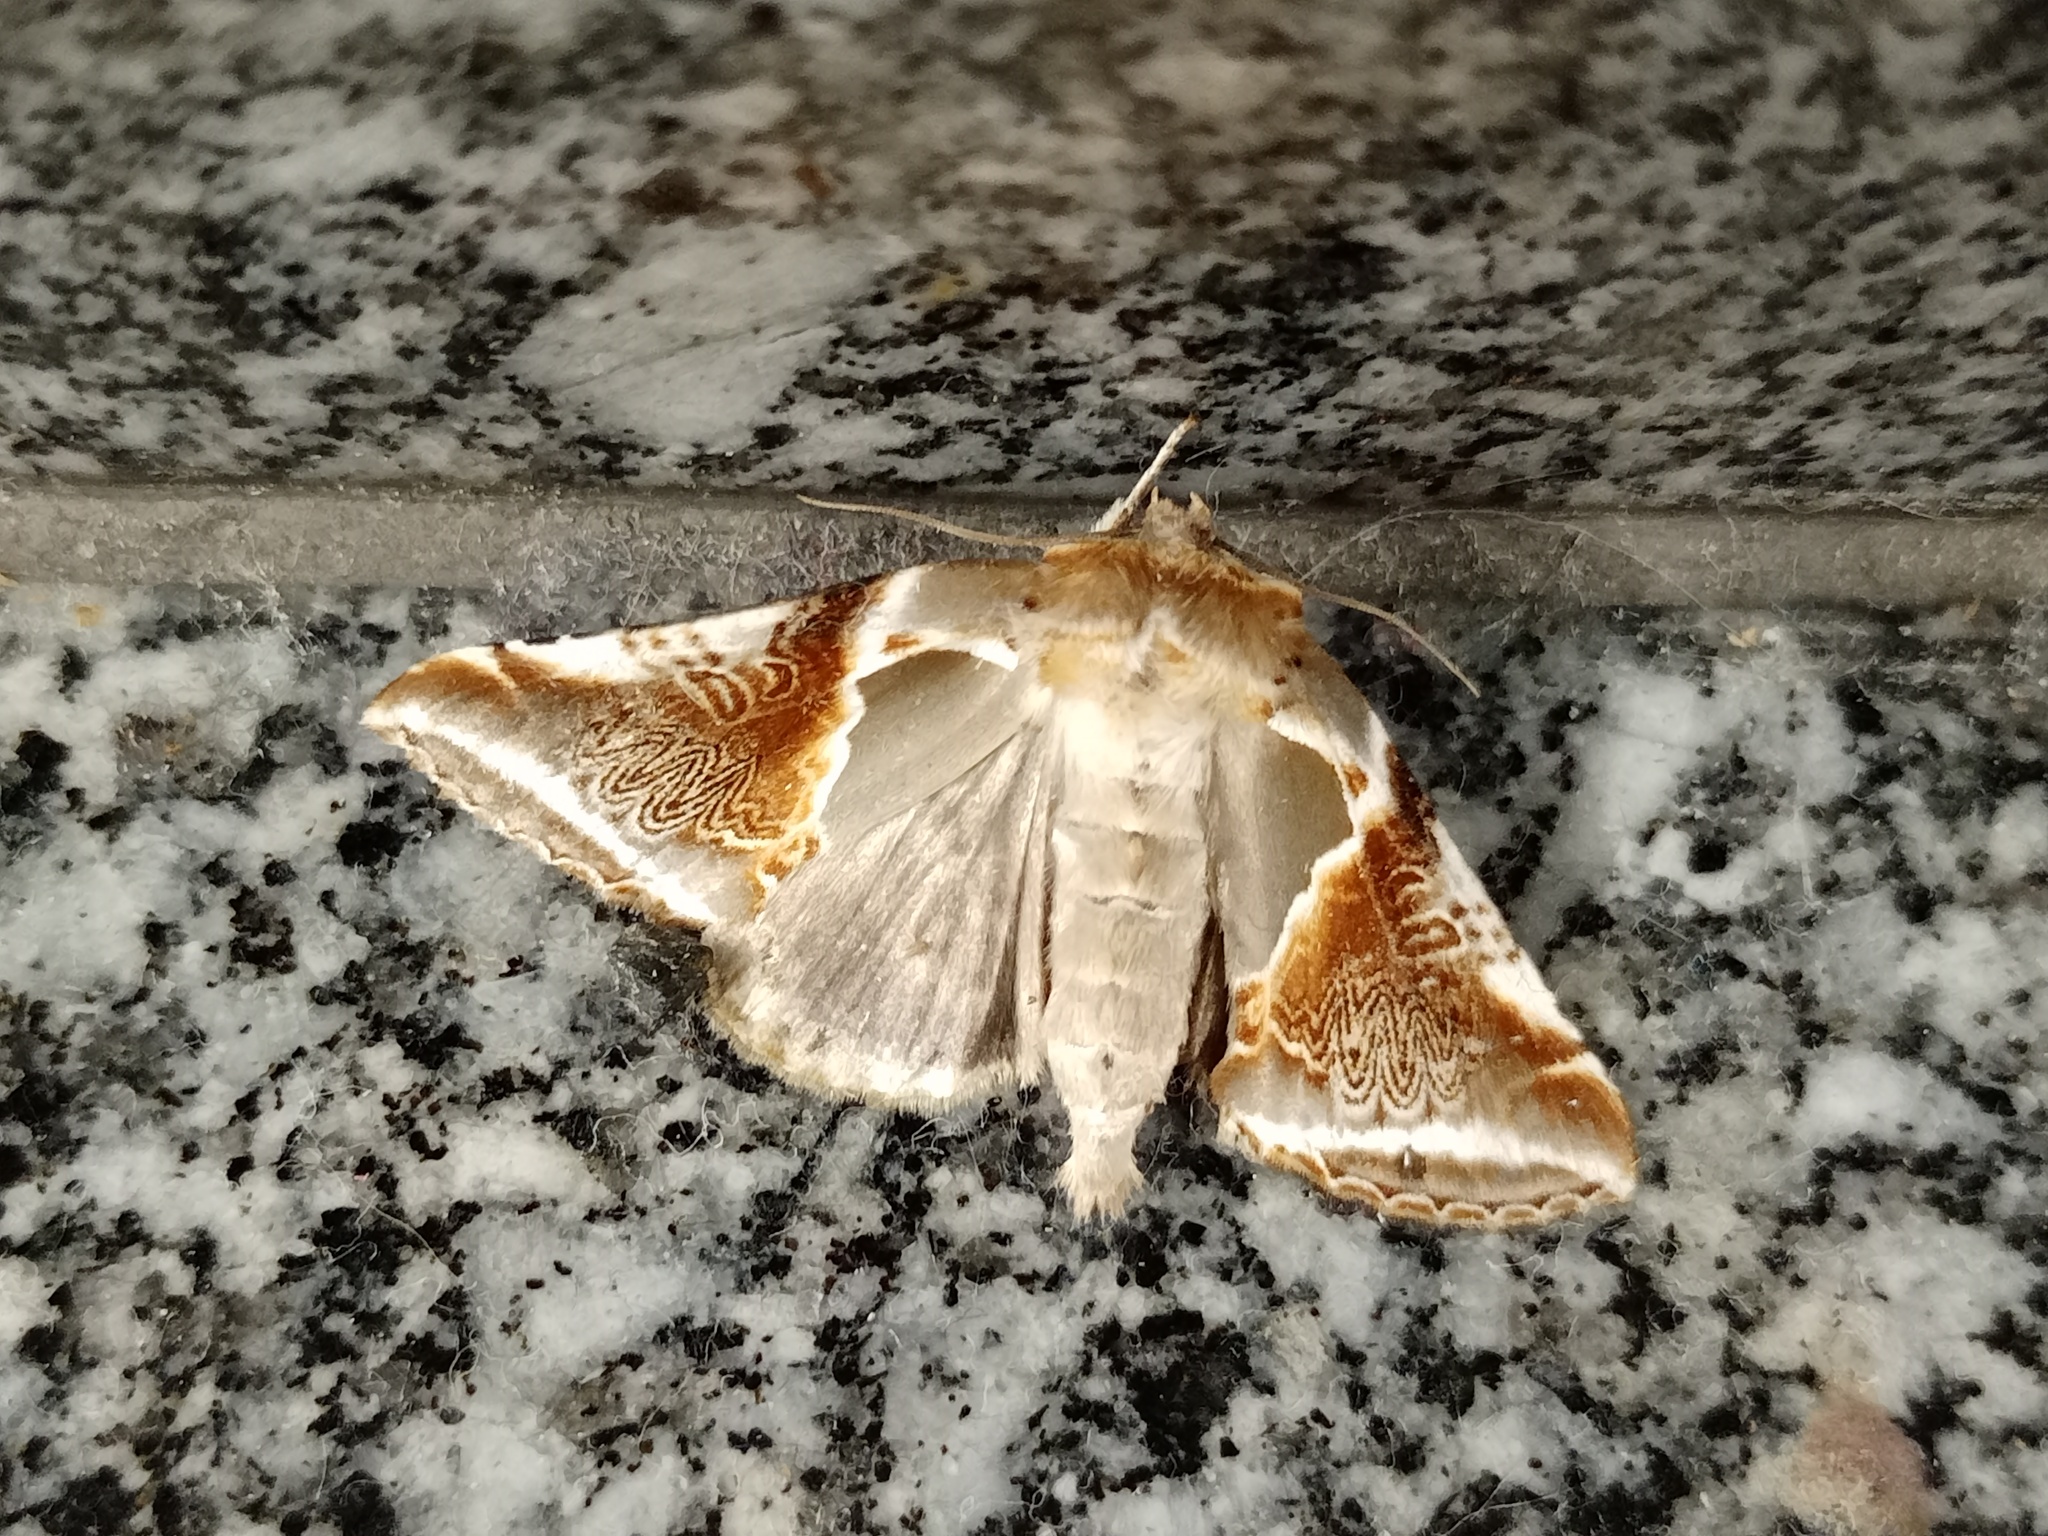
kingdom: Animalia
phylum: Arthropoda
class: Insecta
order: Lepidoptera
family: Drepanidae
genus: Habrosyne
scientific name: Habrosyne pyritoides
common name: Buff arches
